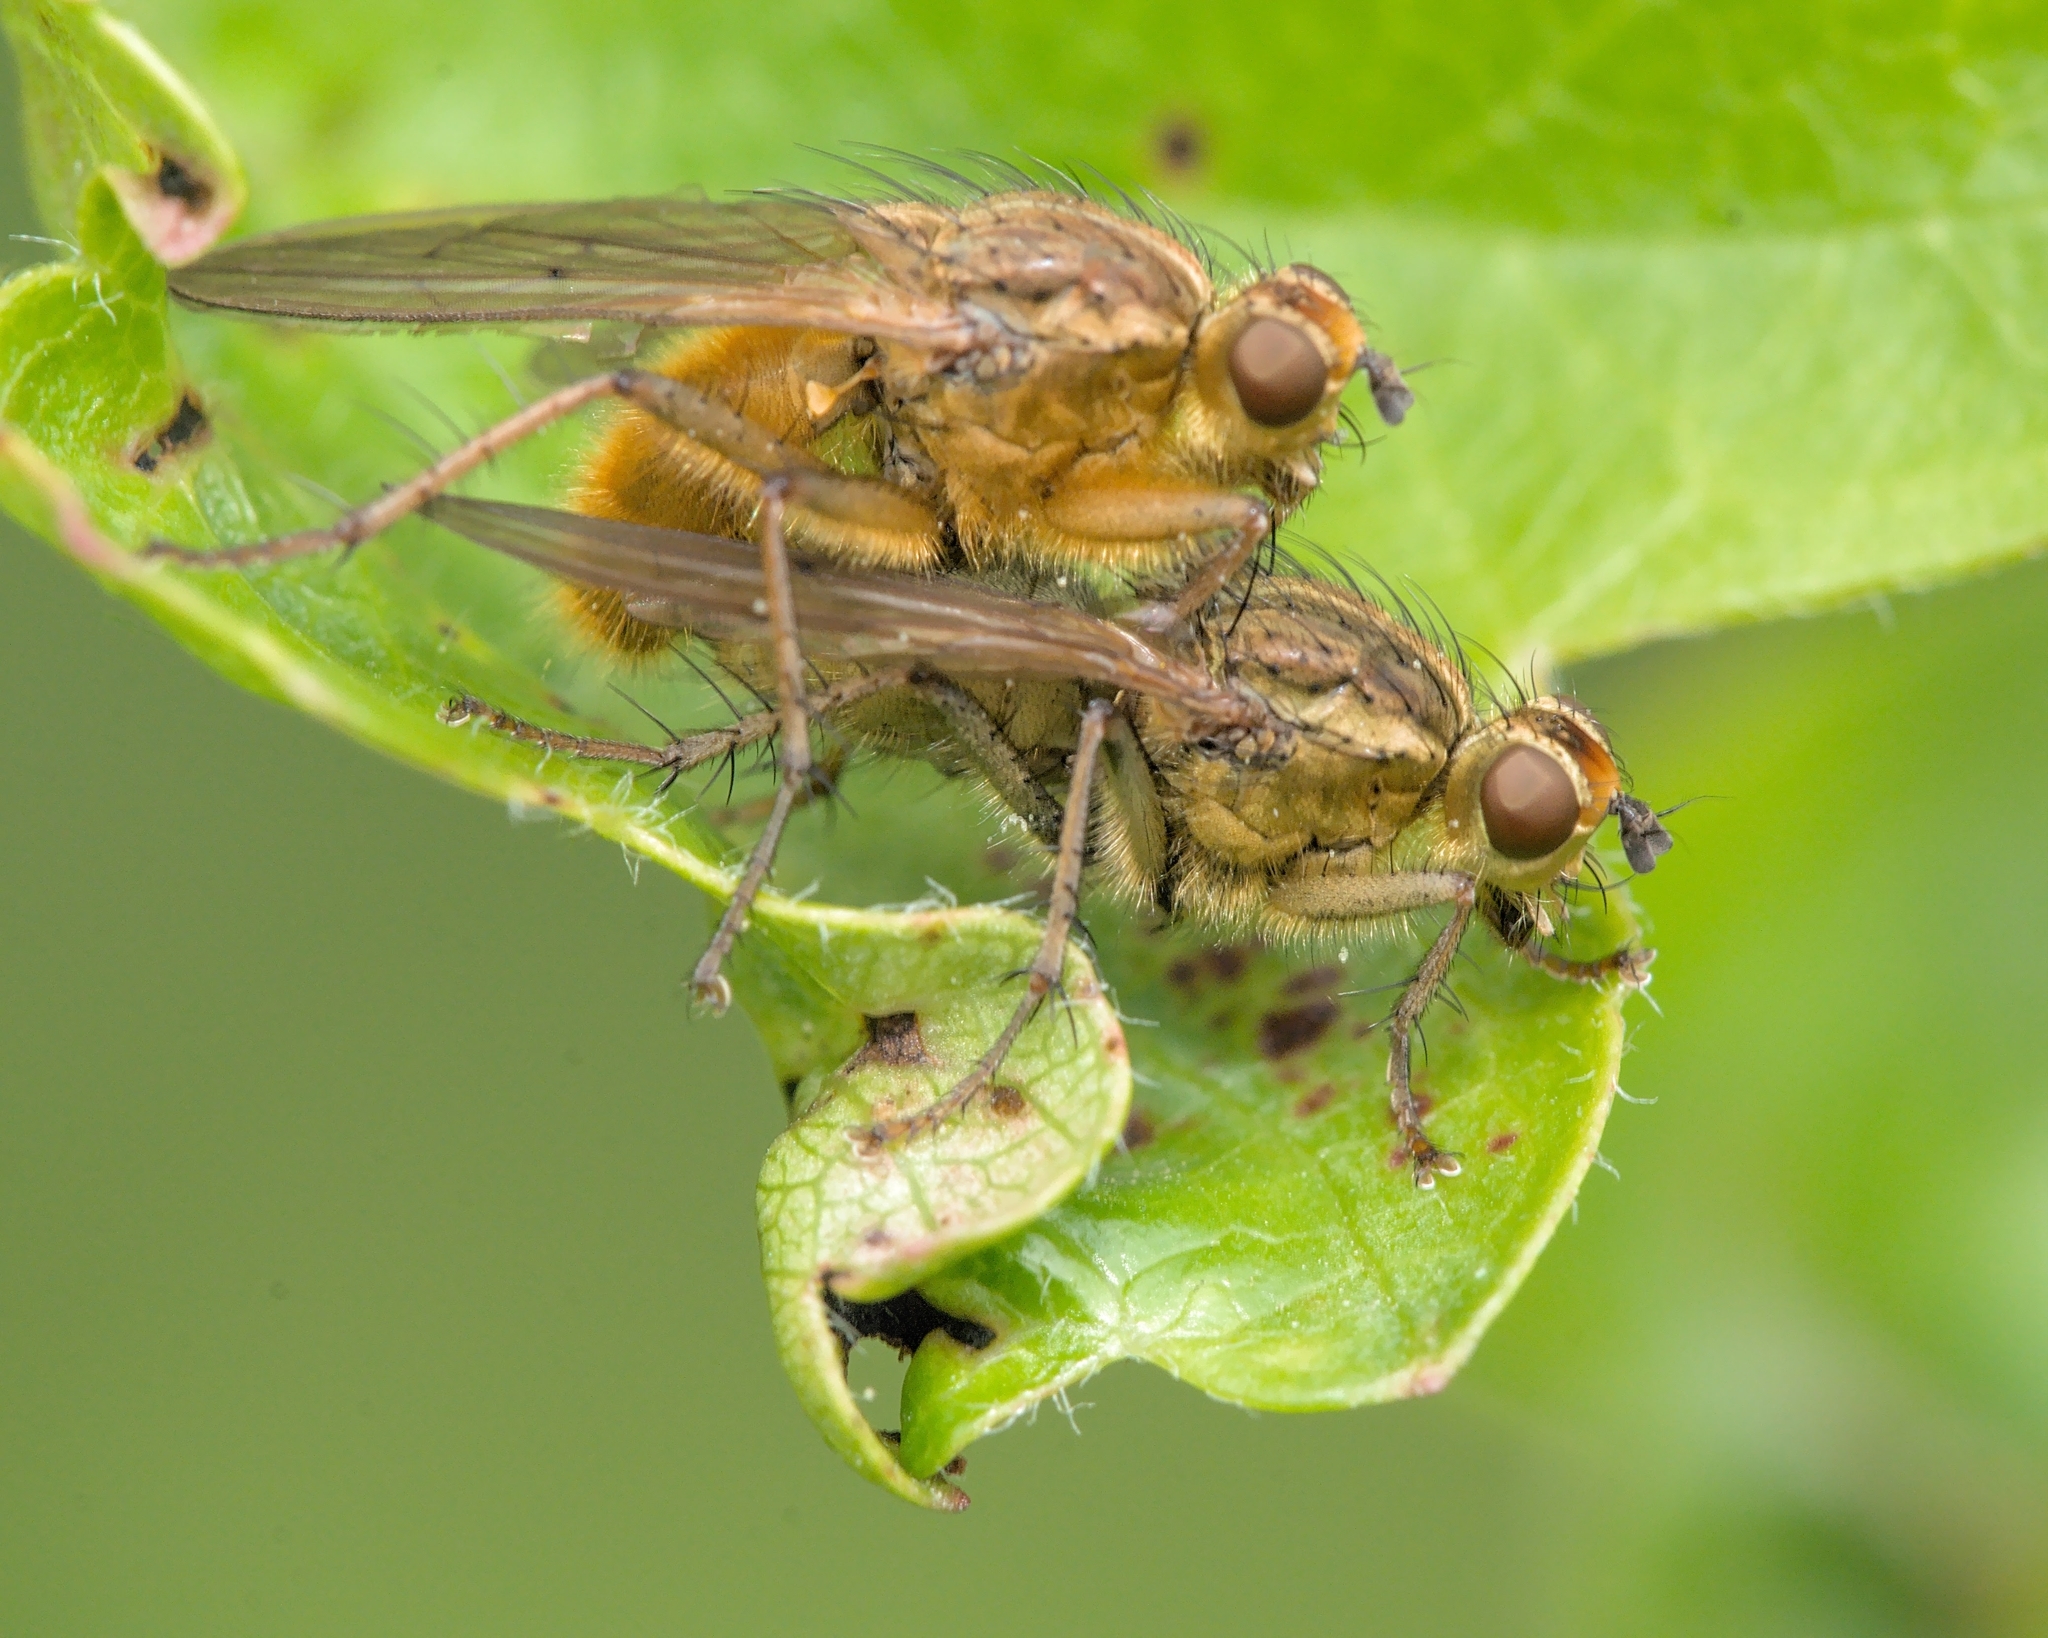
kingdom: Animalia
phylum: Arthropoda
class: Insecta
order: Diptera
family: Scathophagidae
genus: Scathophaga
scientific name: Scathophaga stercoraria
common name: Yellow dung fly
